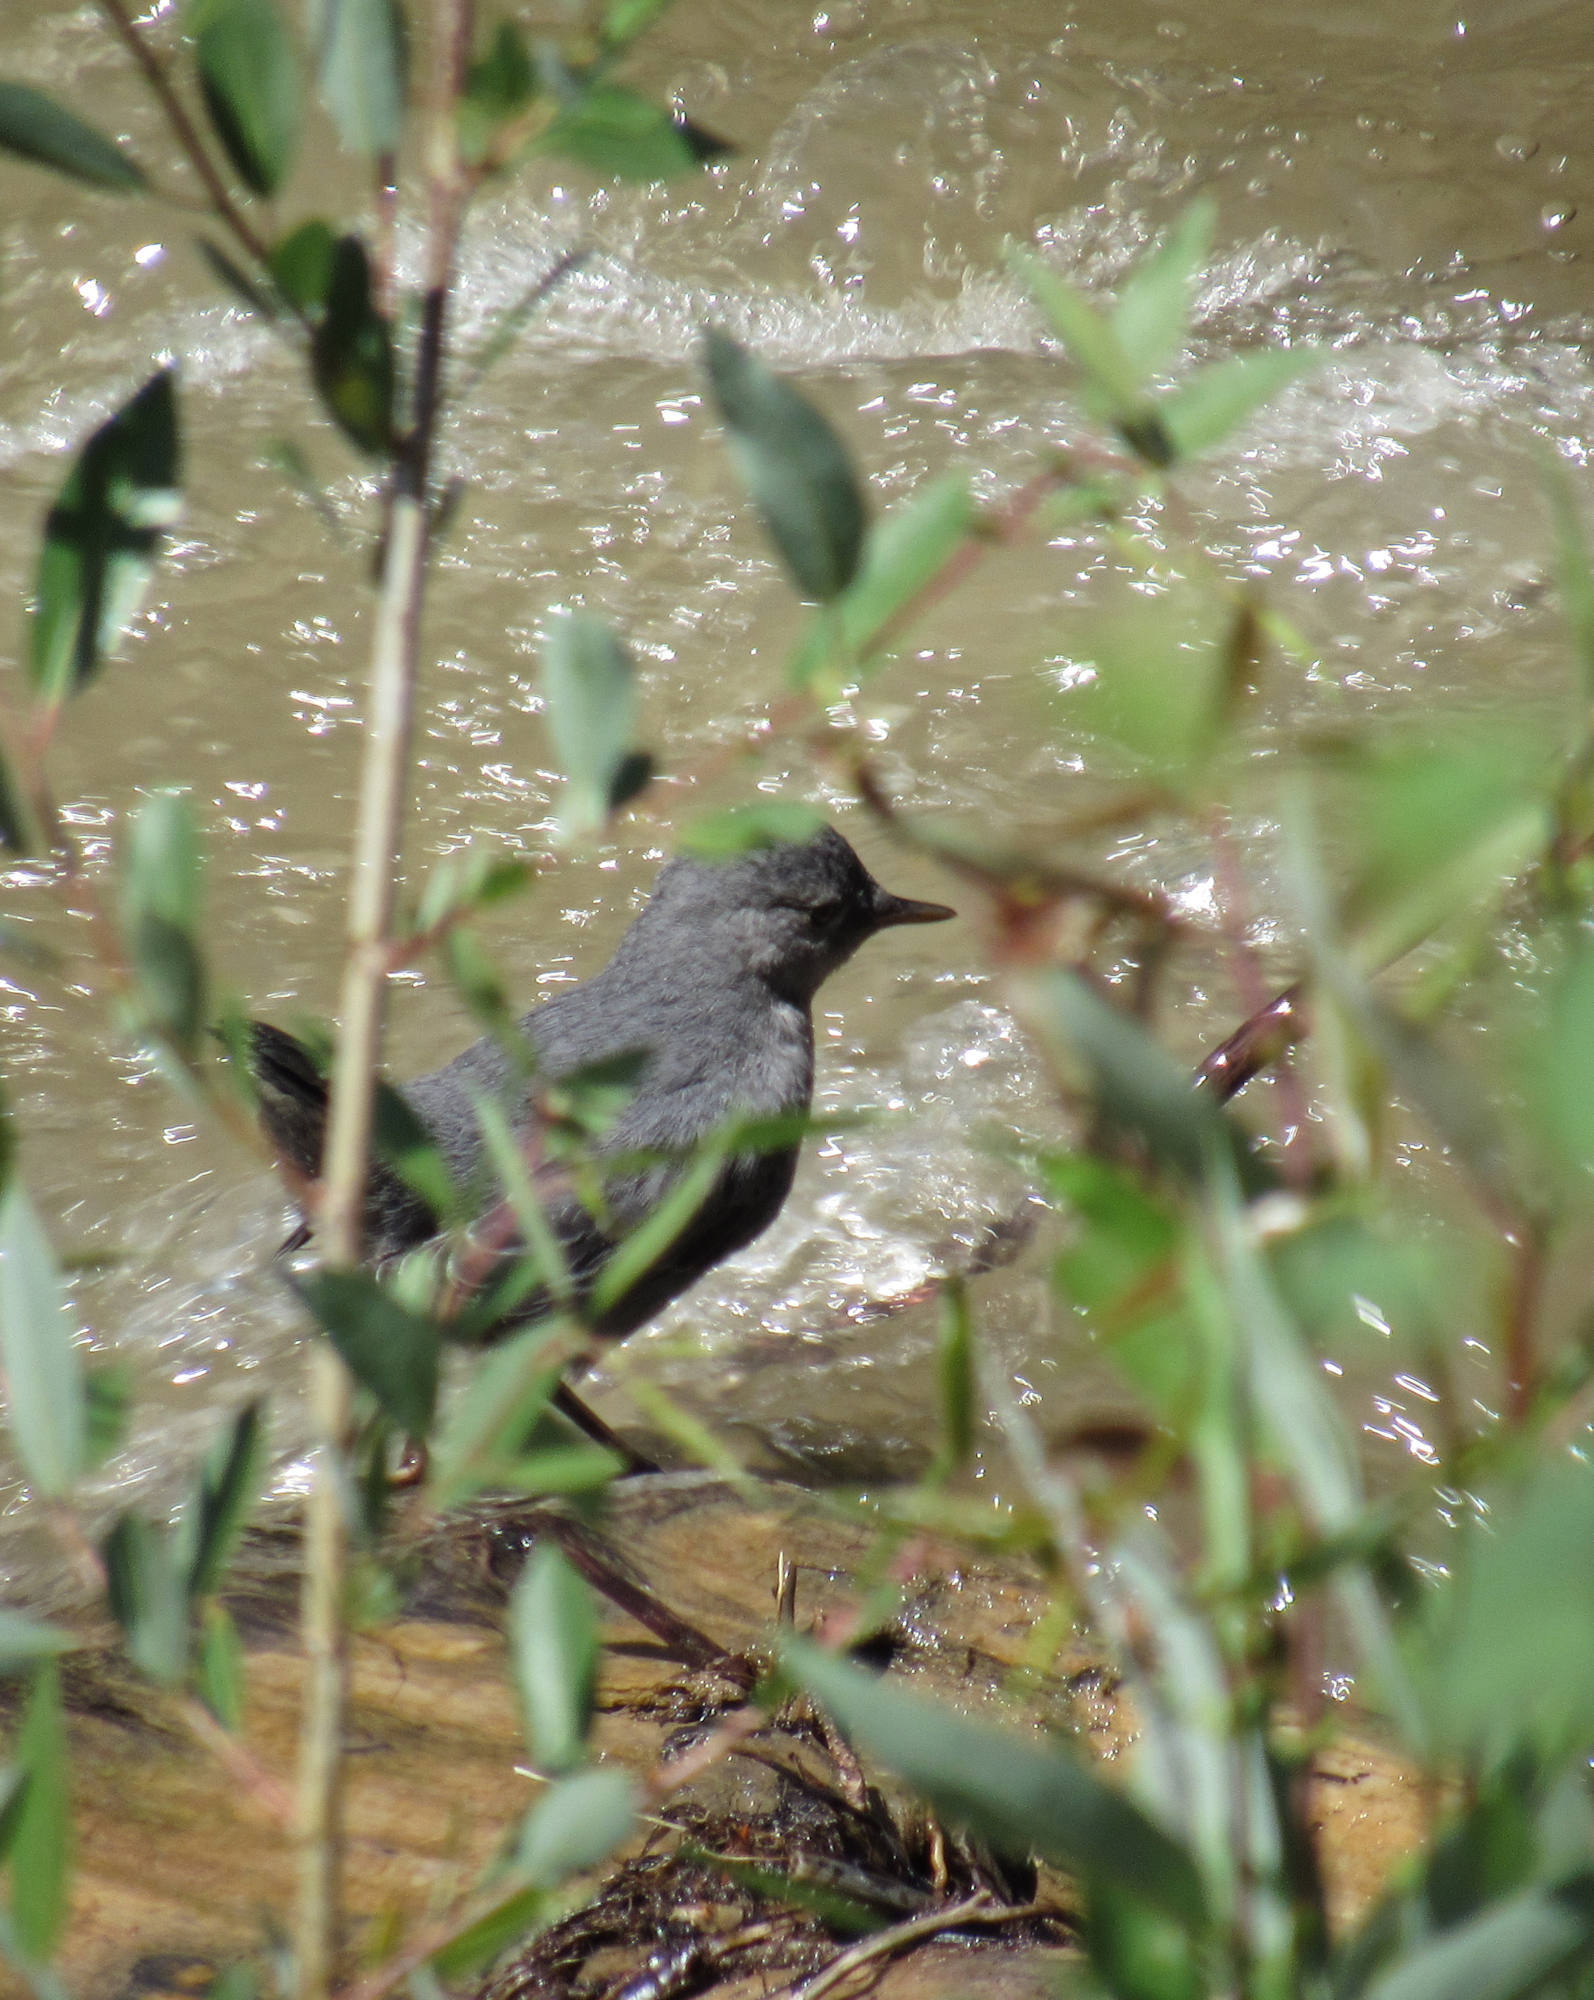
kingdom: Animalia
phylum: Chordata
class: Aves
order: Passeriformes
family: Cinclidae
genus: Cinclus
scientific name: Cinclus mexicanus
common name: American dipper
